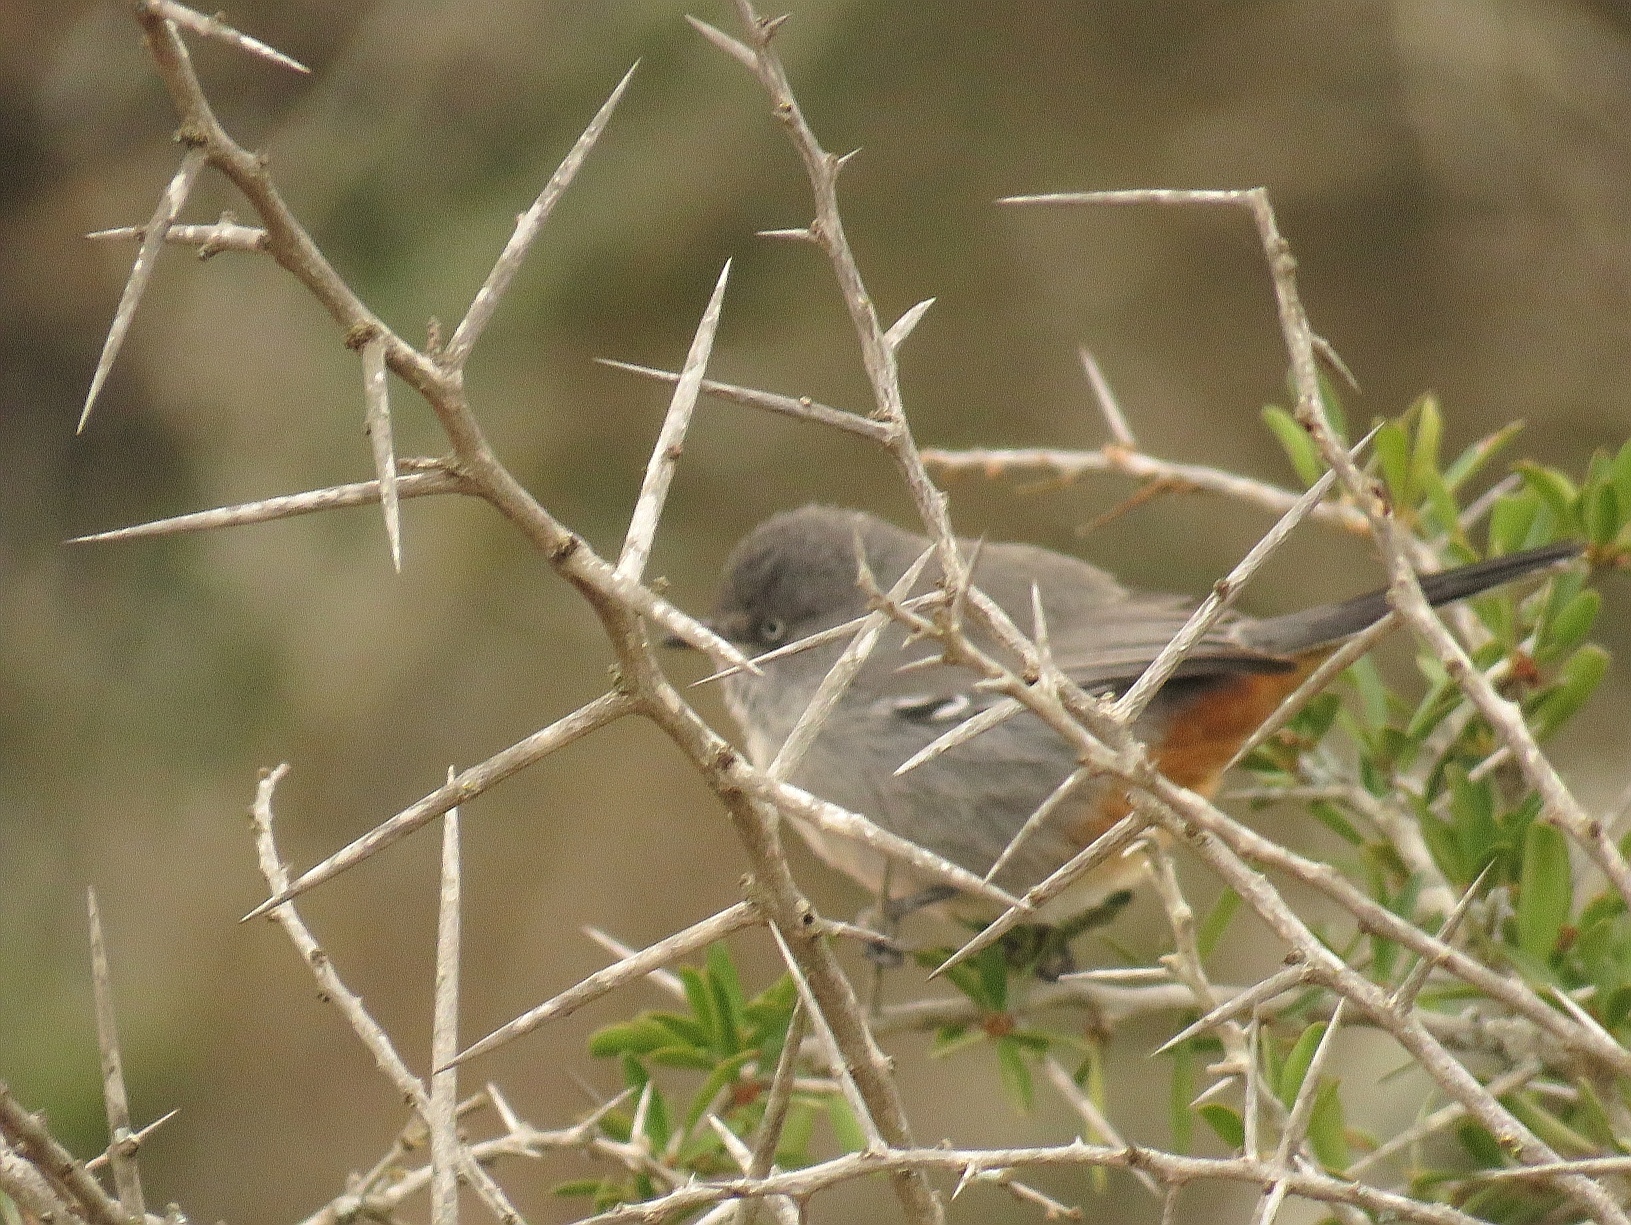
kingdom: Animalia
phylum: Chordata
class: Aves
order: Passeriformes
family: Sylviidae
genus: Curruca
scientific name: Curruca subcoerulea
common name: Chestnut-vented warbler
